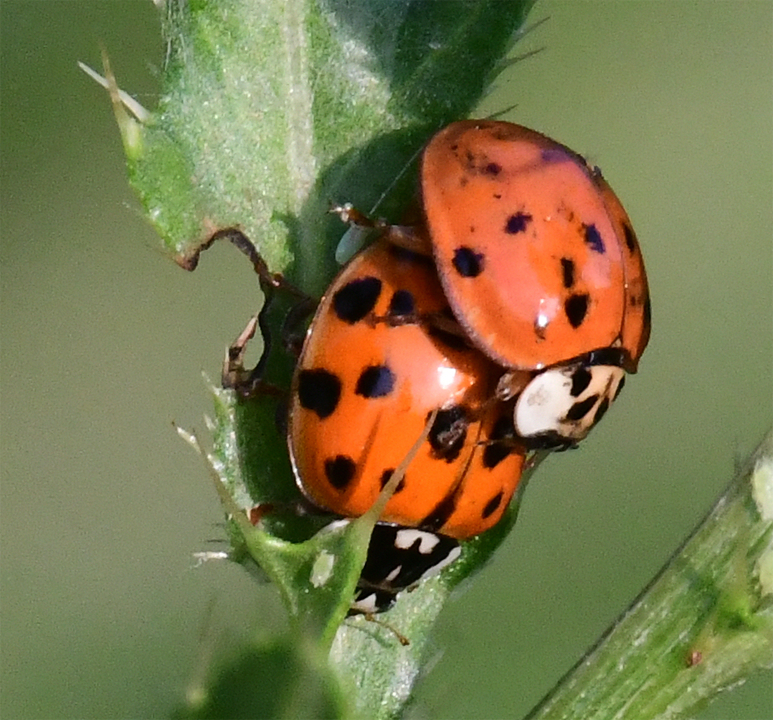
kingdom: Animalia
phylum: Arthropoda
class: Insecta
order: Coleoptera
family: Coccinellidae
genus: Harmonia
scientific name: Harmonia axyridis
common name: Harlequin ladybird
